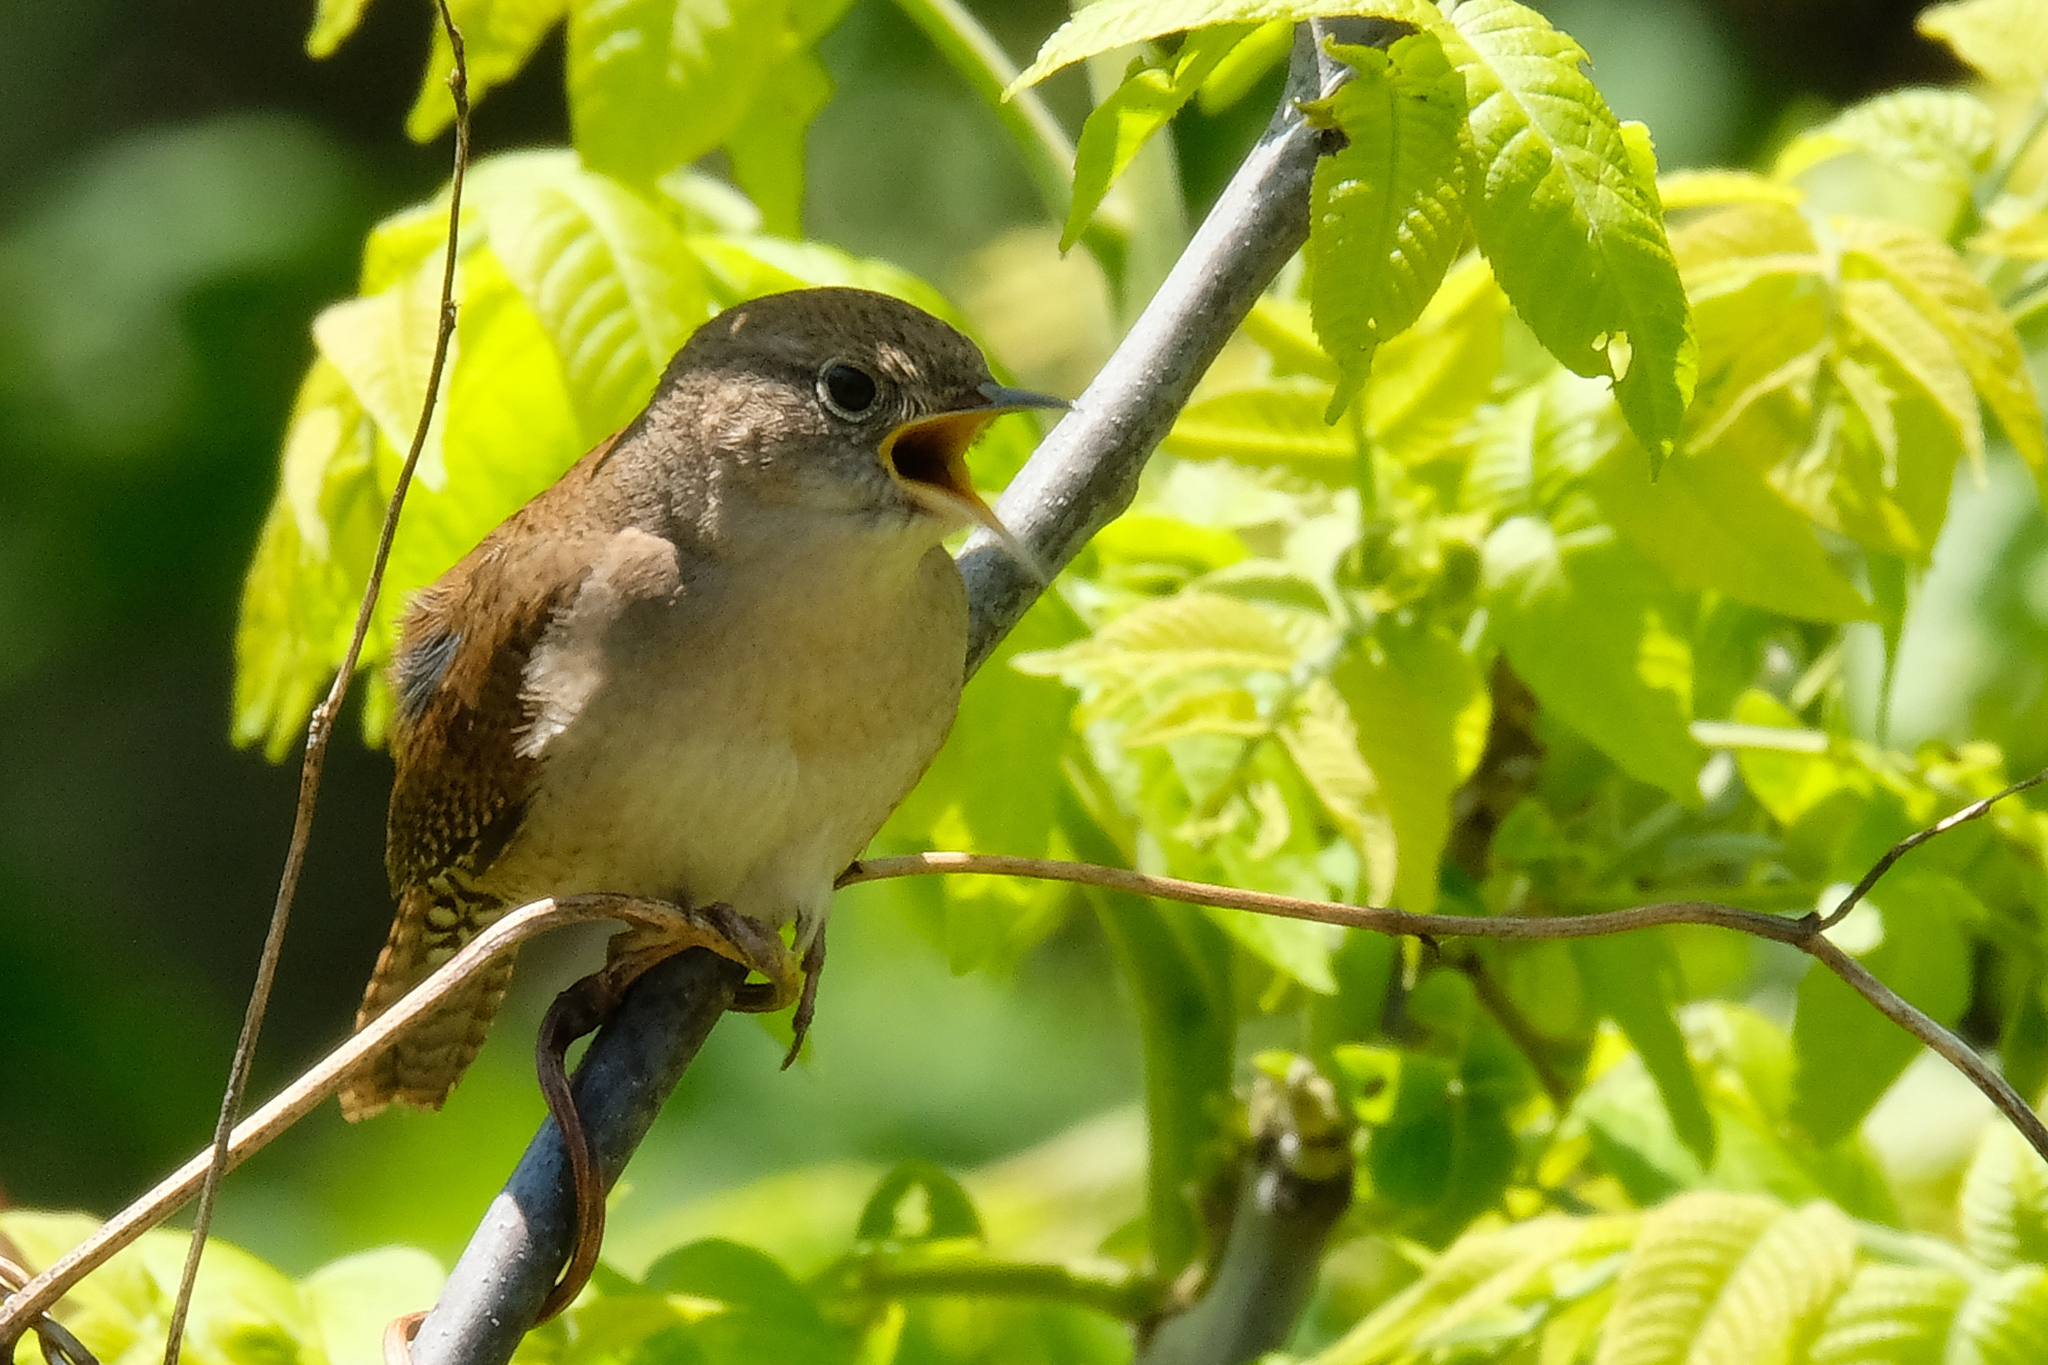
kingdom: Animalia
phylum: Chordata
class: Aves
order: Passeriformes
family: Troglodytidae
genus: Troglodytes
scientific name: Troglodytes aedon
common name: House wren
